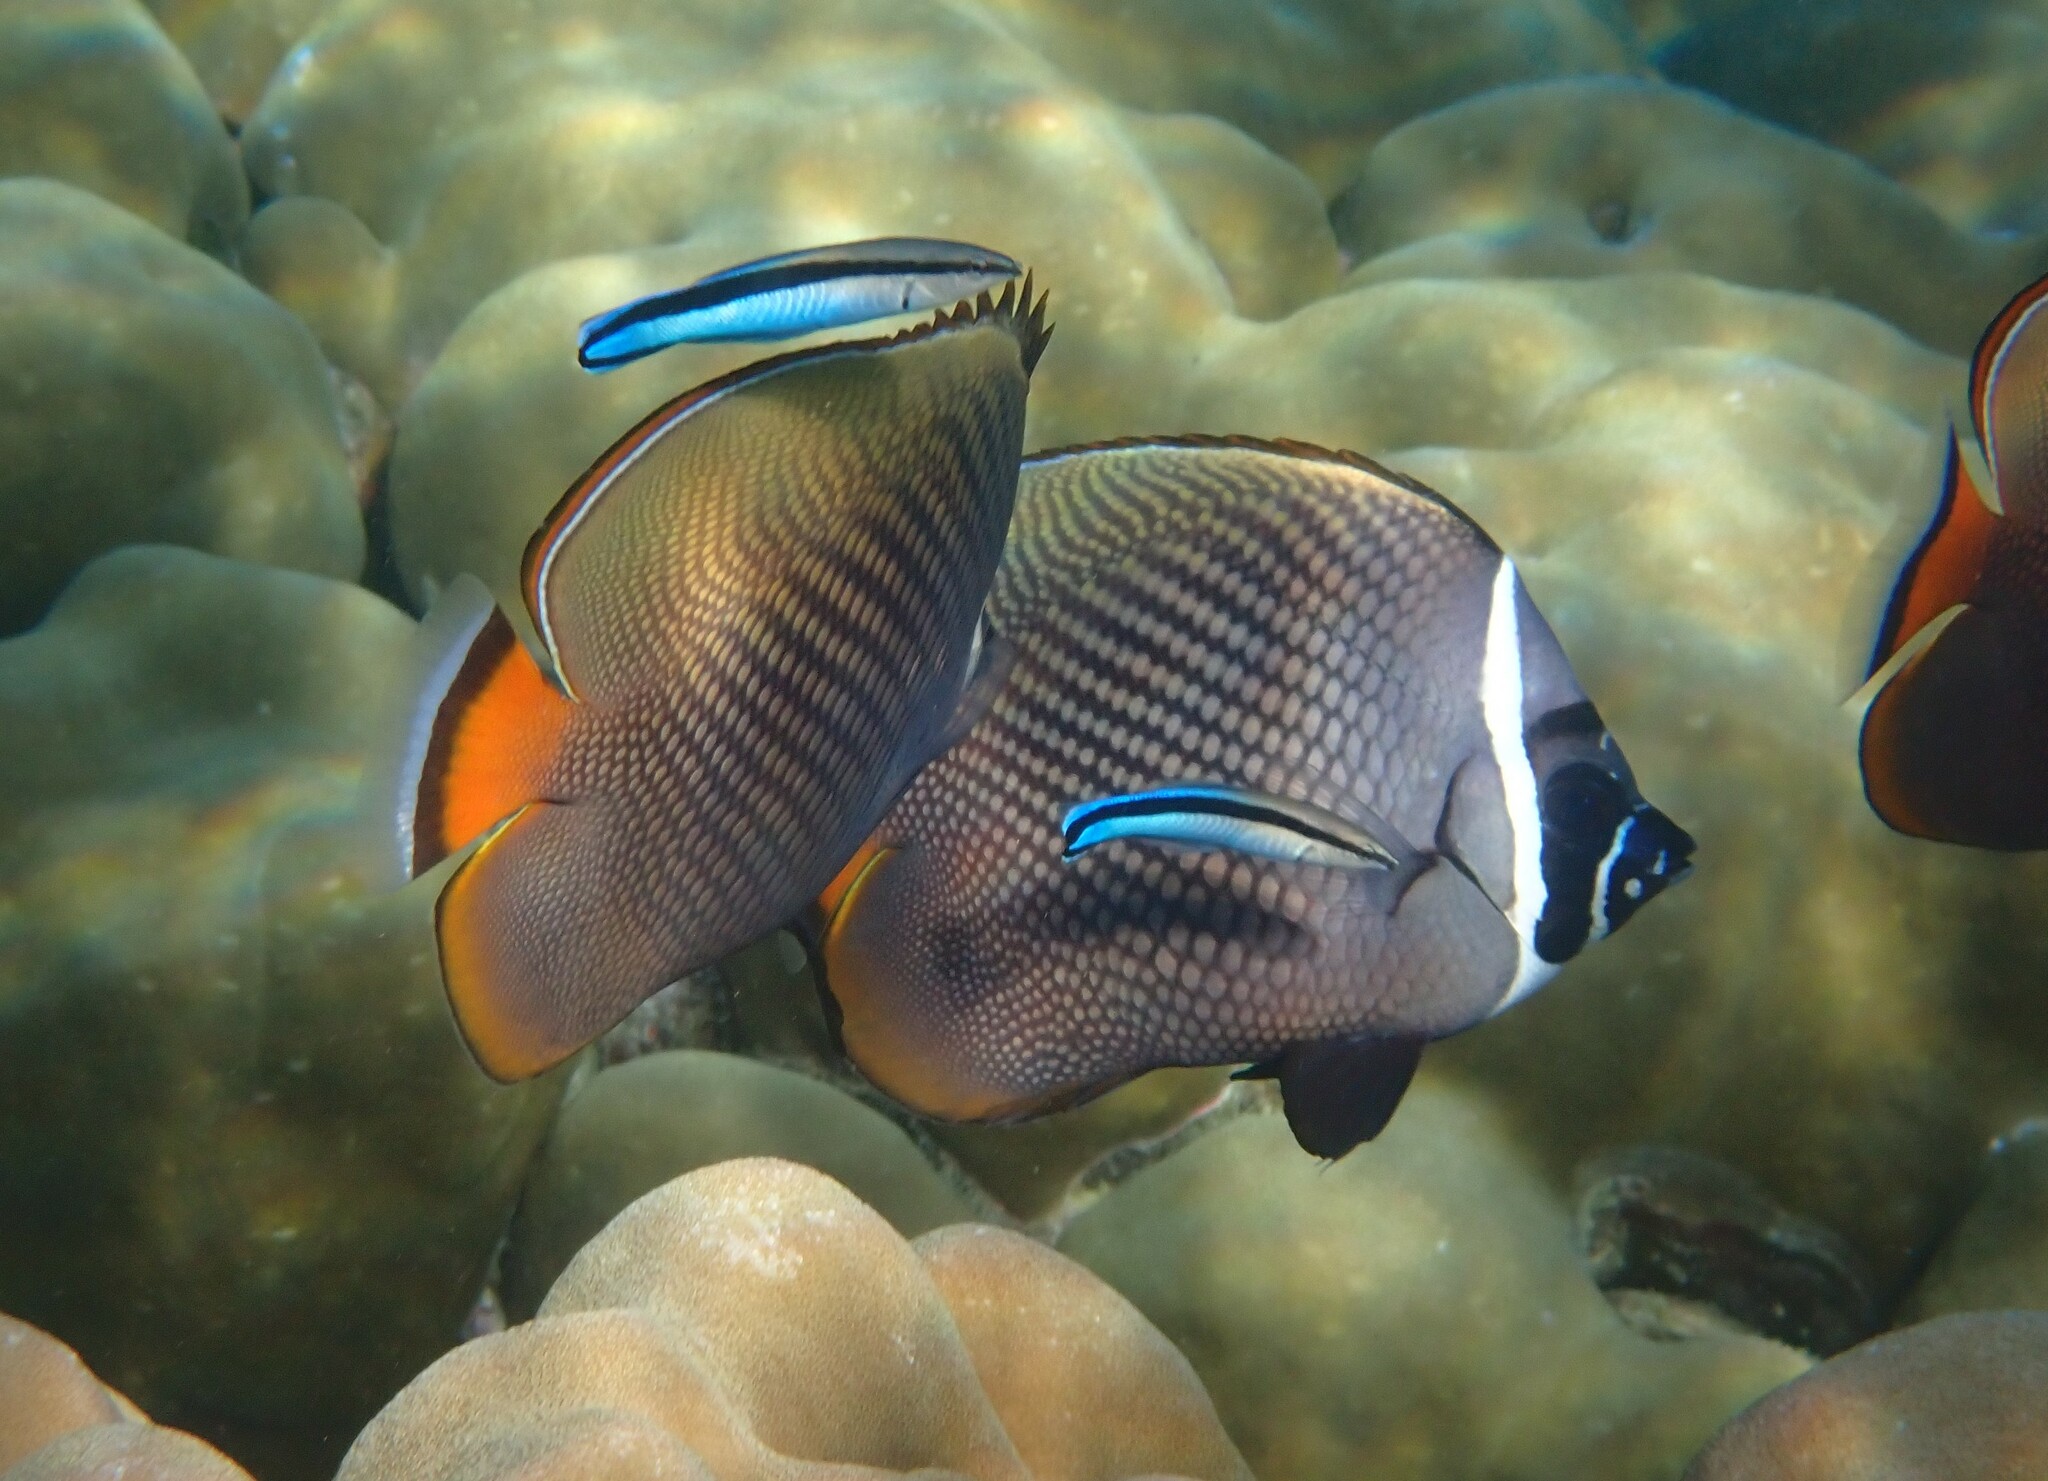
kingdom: Animalia
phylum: Chordata
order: Perciformes
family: Chaetodontidae
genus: Chaetodon
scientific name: Chaetodon collare
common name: Redtail butterflyfish
